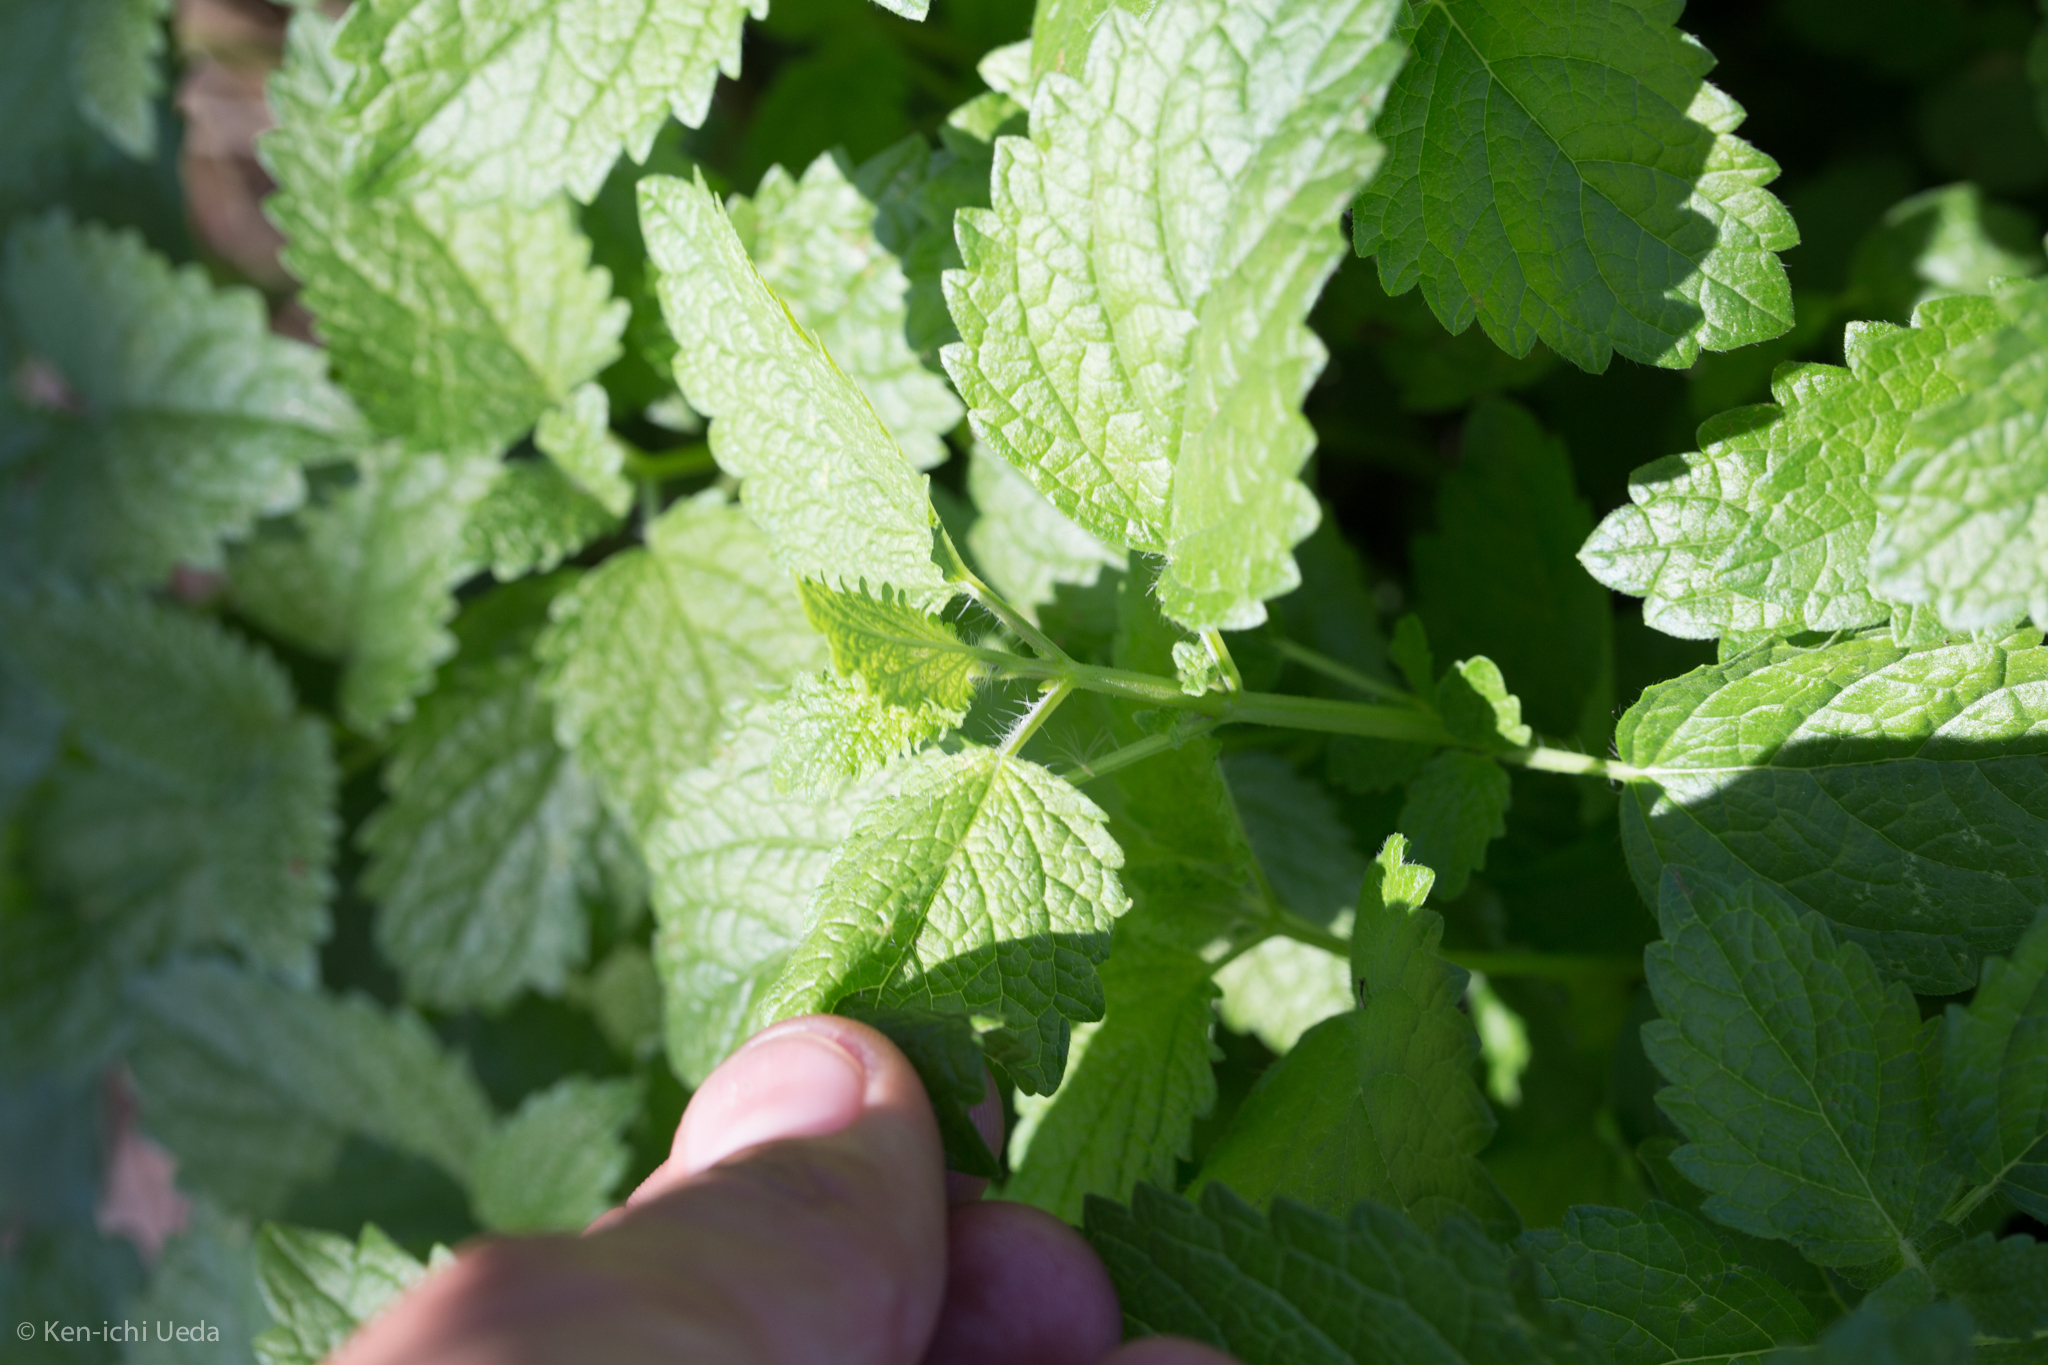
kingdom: Plantae
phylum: Tracheophyta
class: Magnoliopsida
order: Lamiales
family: Lamiaceae
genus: Melissa
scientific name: Melissa officinalis
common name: Balm
